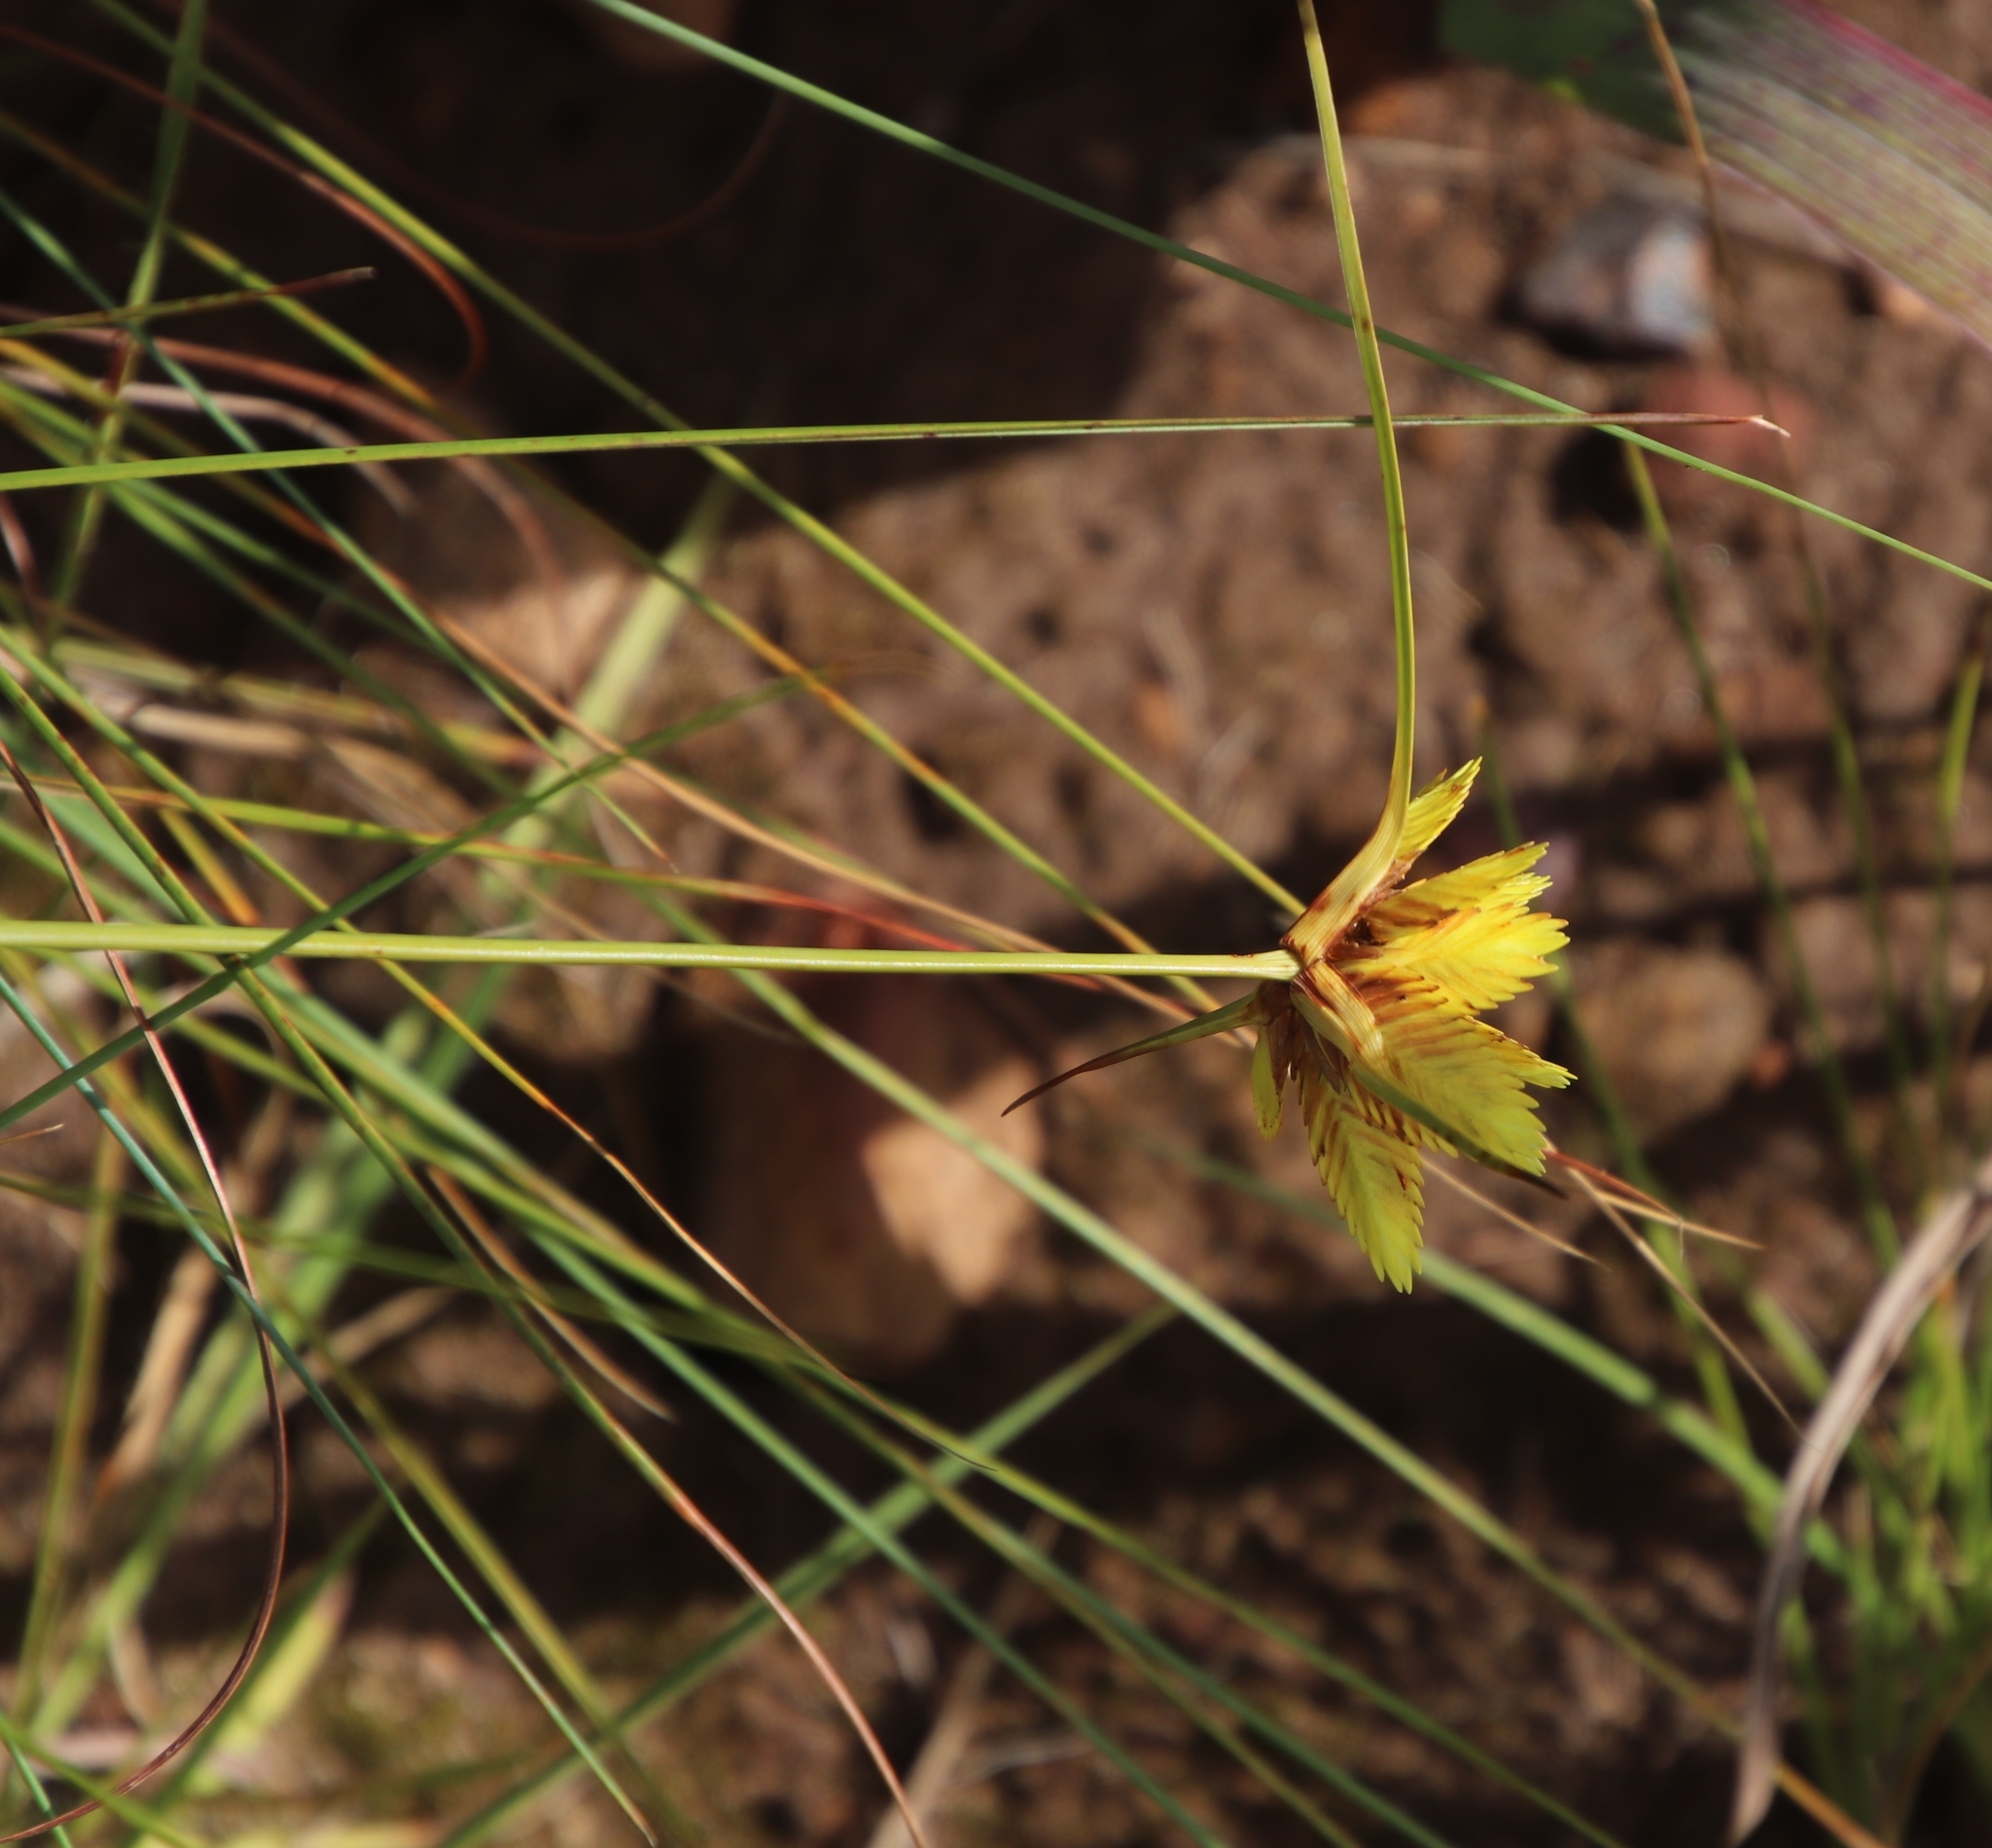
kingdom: Plantae
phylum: Tracheophyta
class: Liliopsida
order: Poales
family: Cyperaceae
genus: Cyperus
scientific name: Cyperus sphaerocephalus
